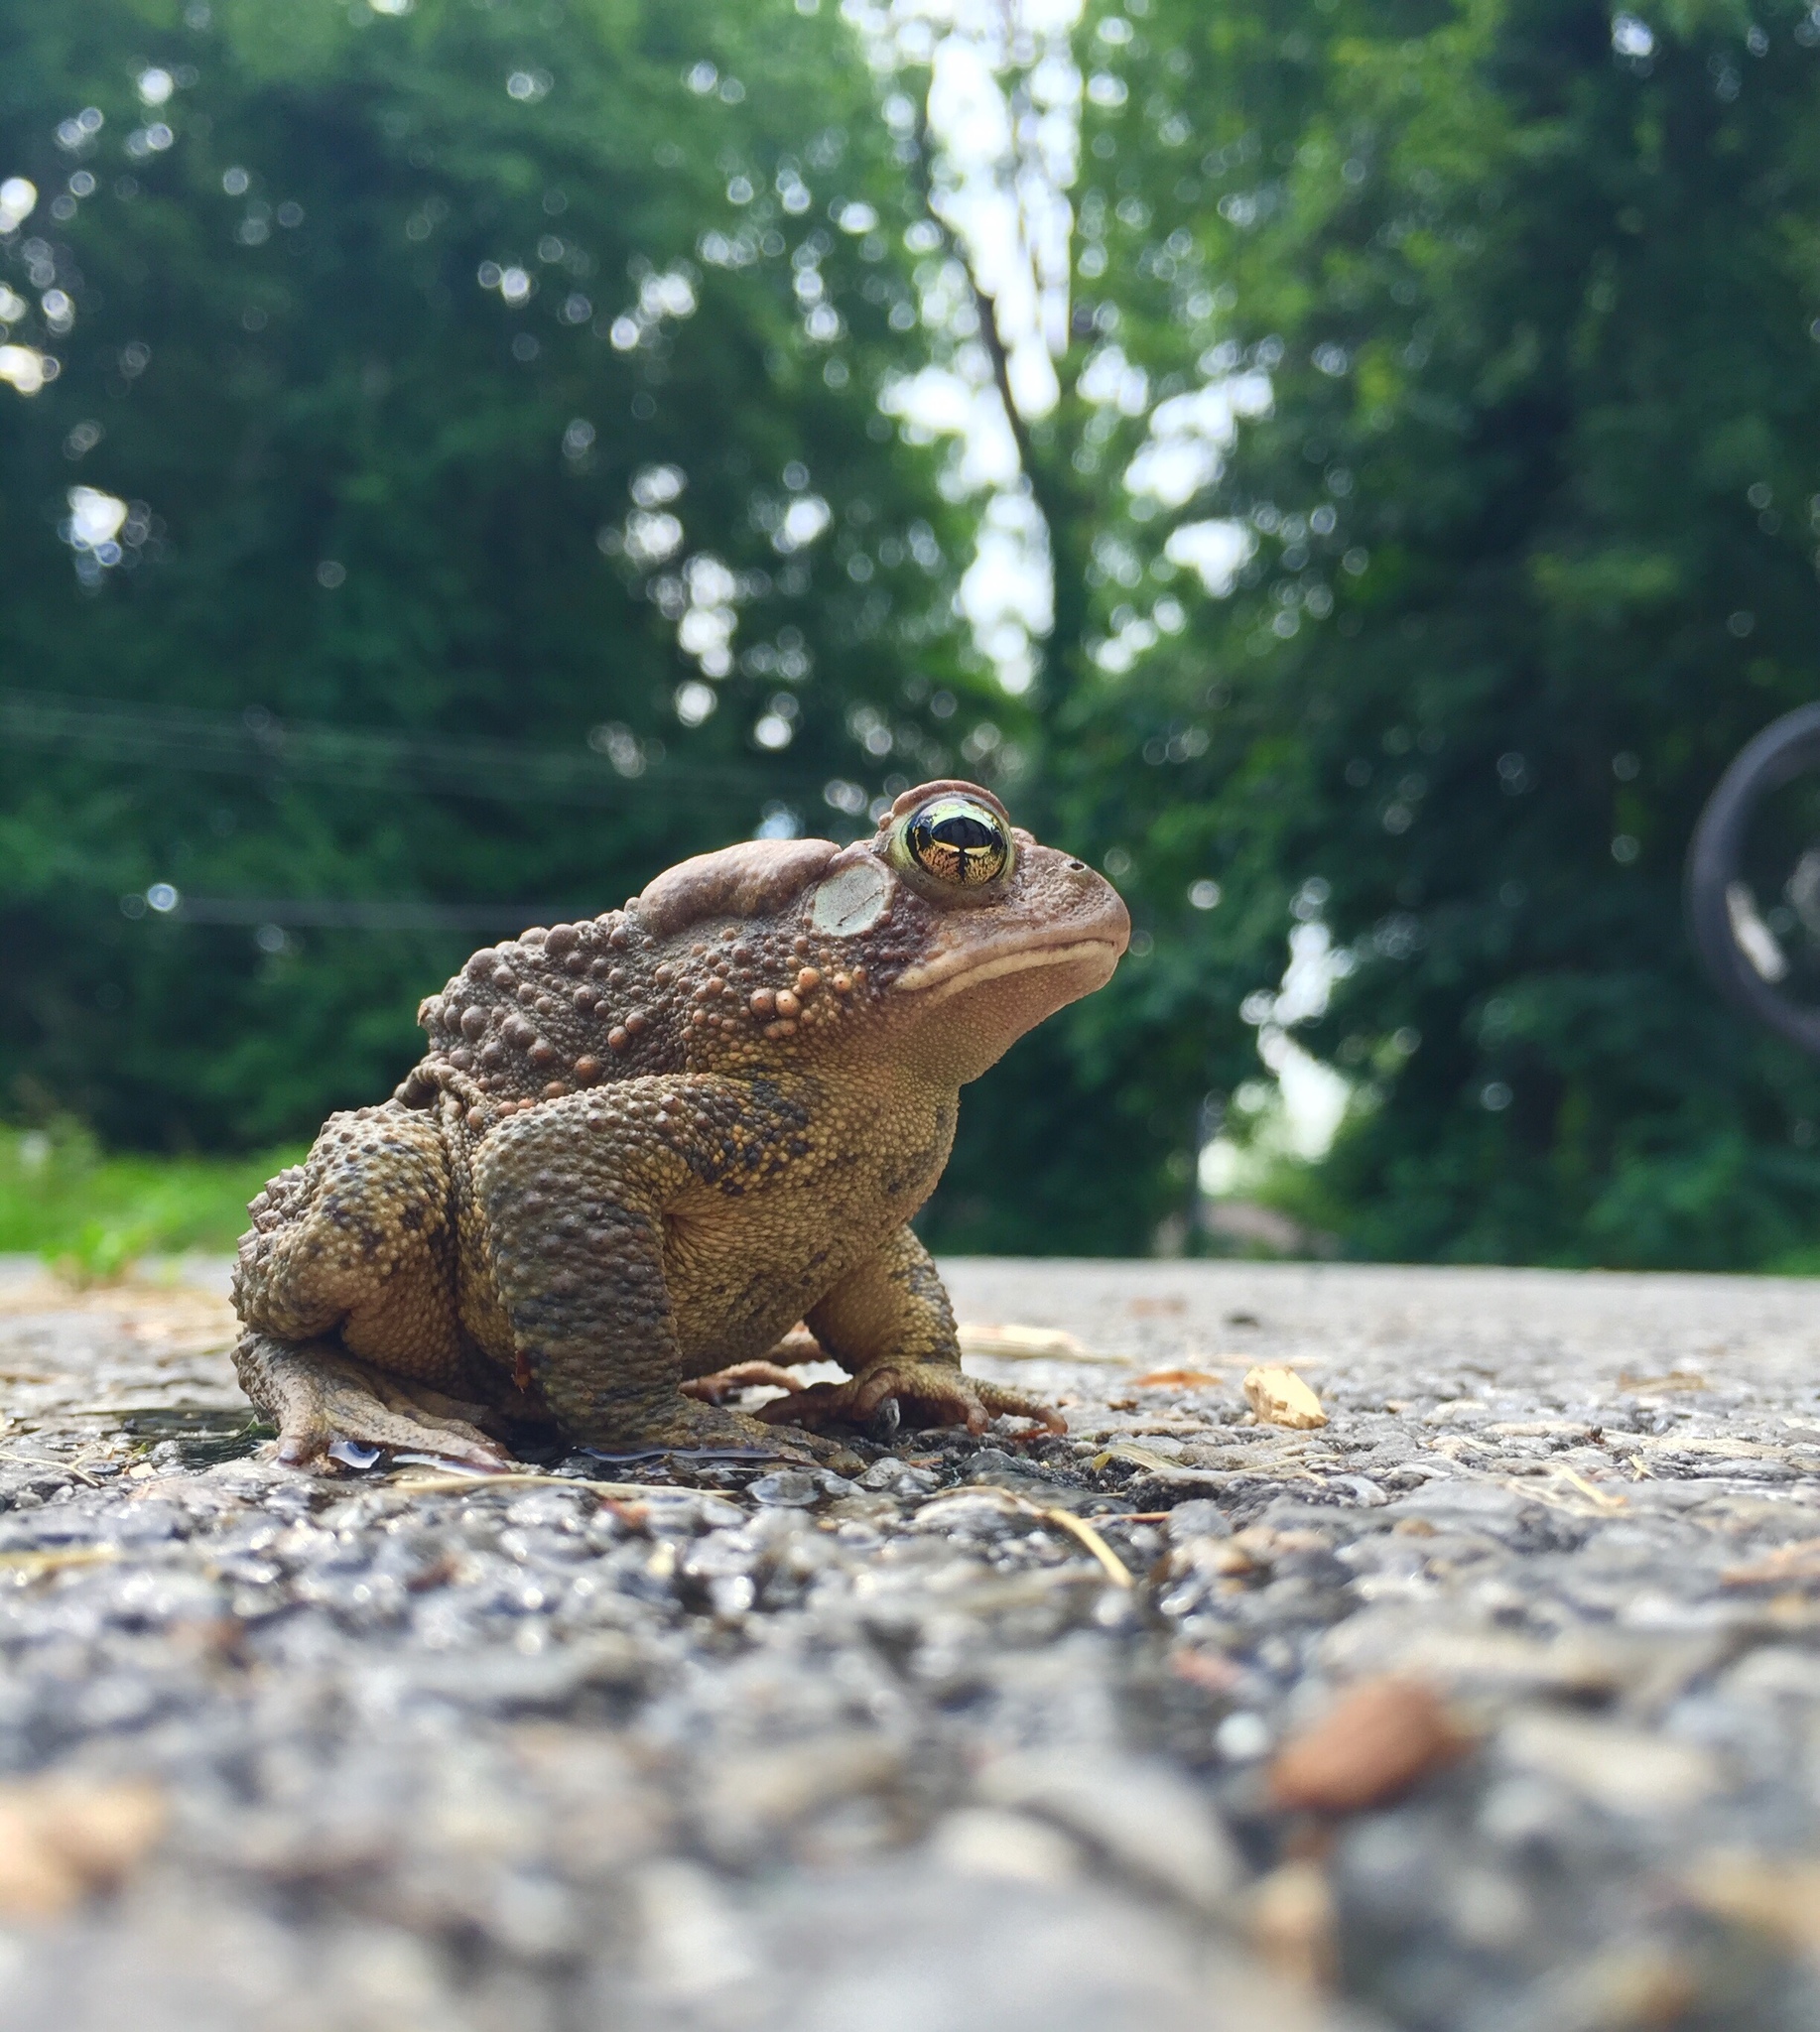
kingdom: Animalia
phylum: Chordata
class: Amphibia
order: Anura
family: Bufonidae
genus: Anaxyrus
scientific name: Anaxyrus americanus
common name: American toad
